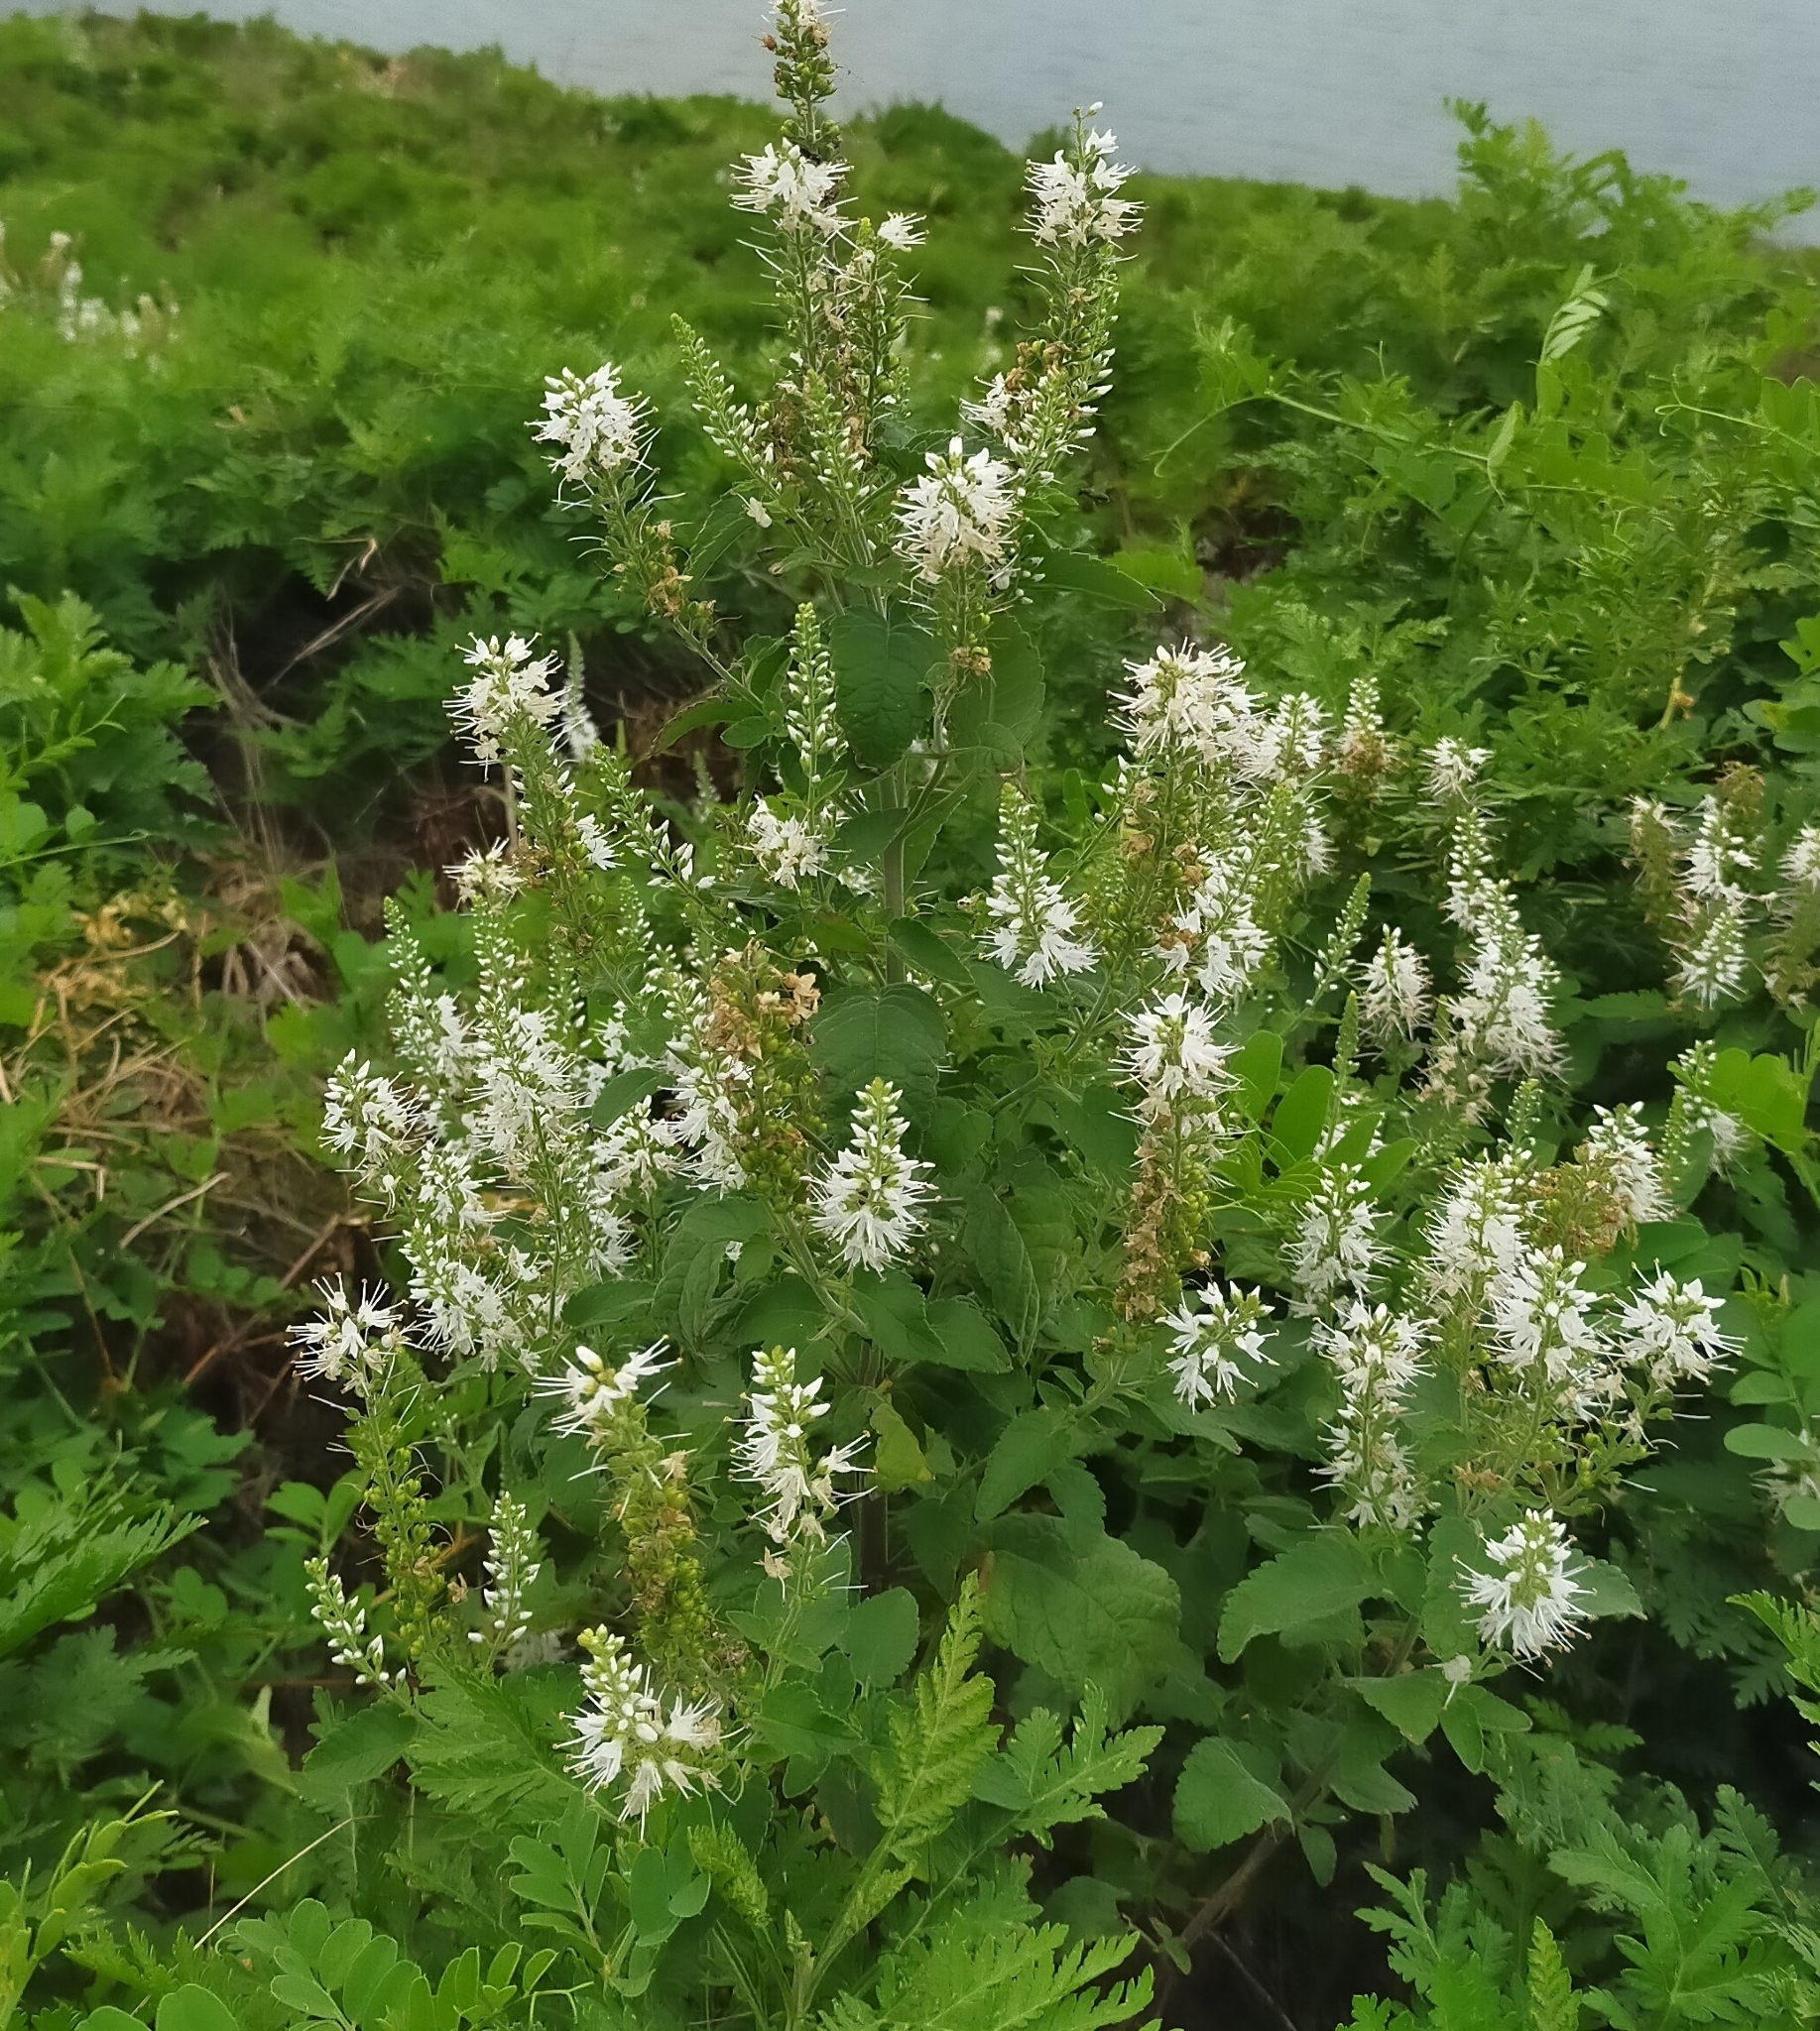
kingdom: Plantae
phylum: Tracheophyta
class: Magnoliopsida
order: Lamiales
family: Plantaginaceae
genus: Veronica
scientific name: Veronica daurica
